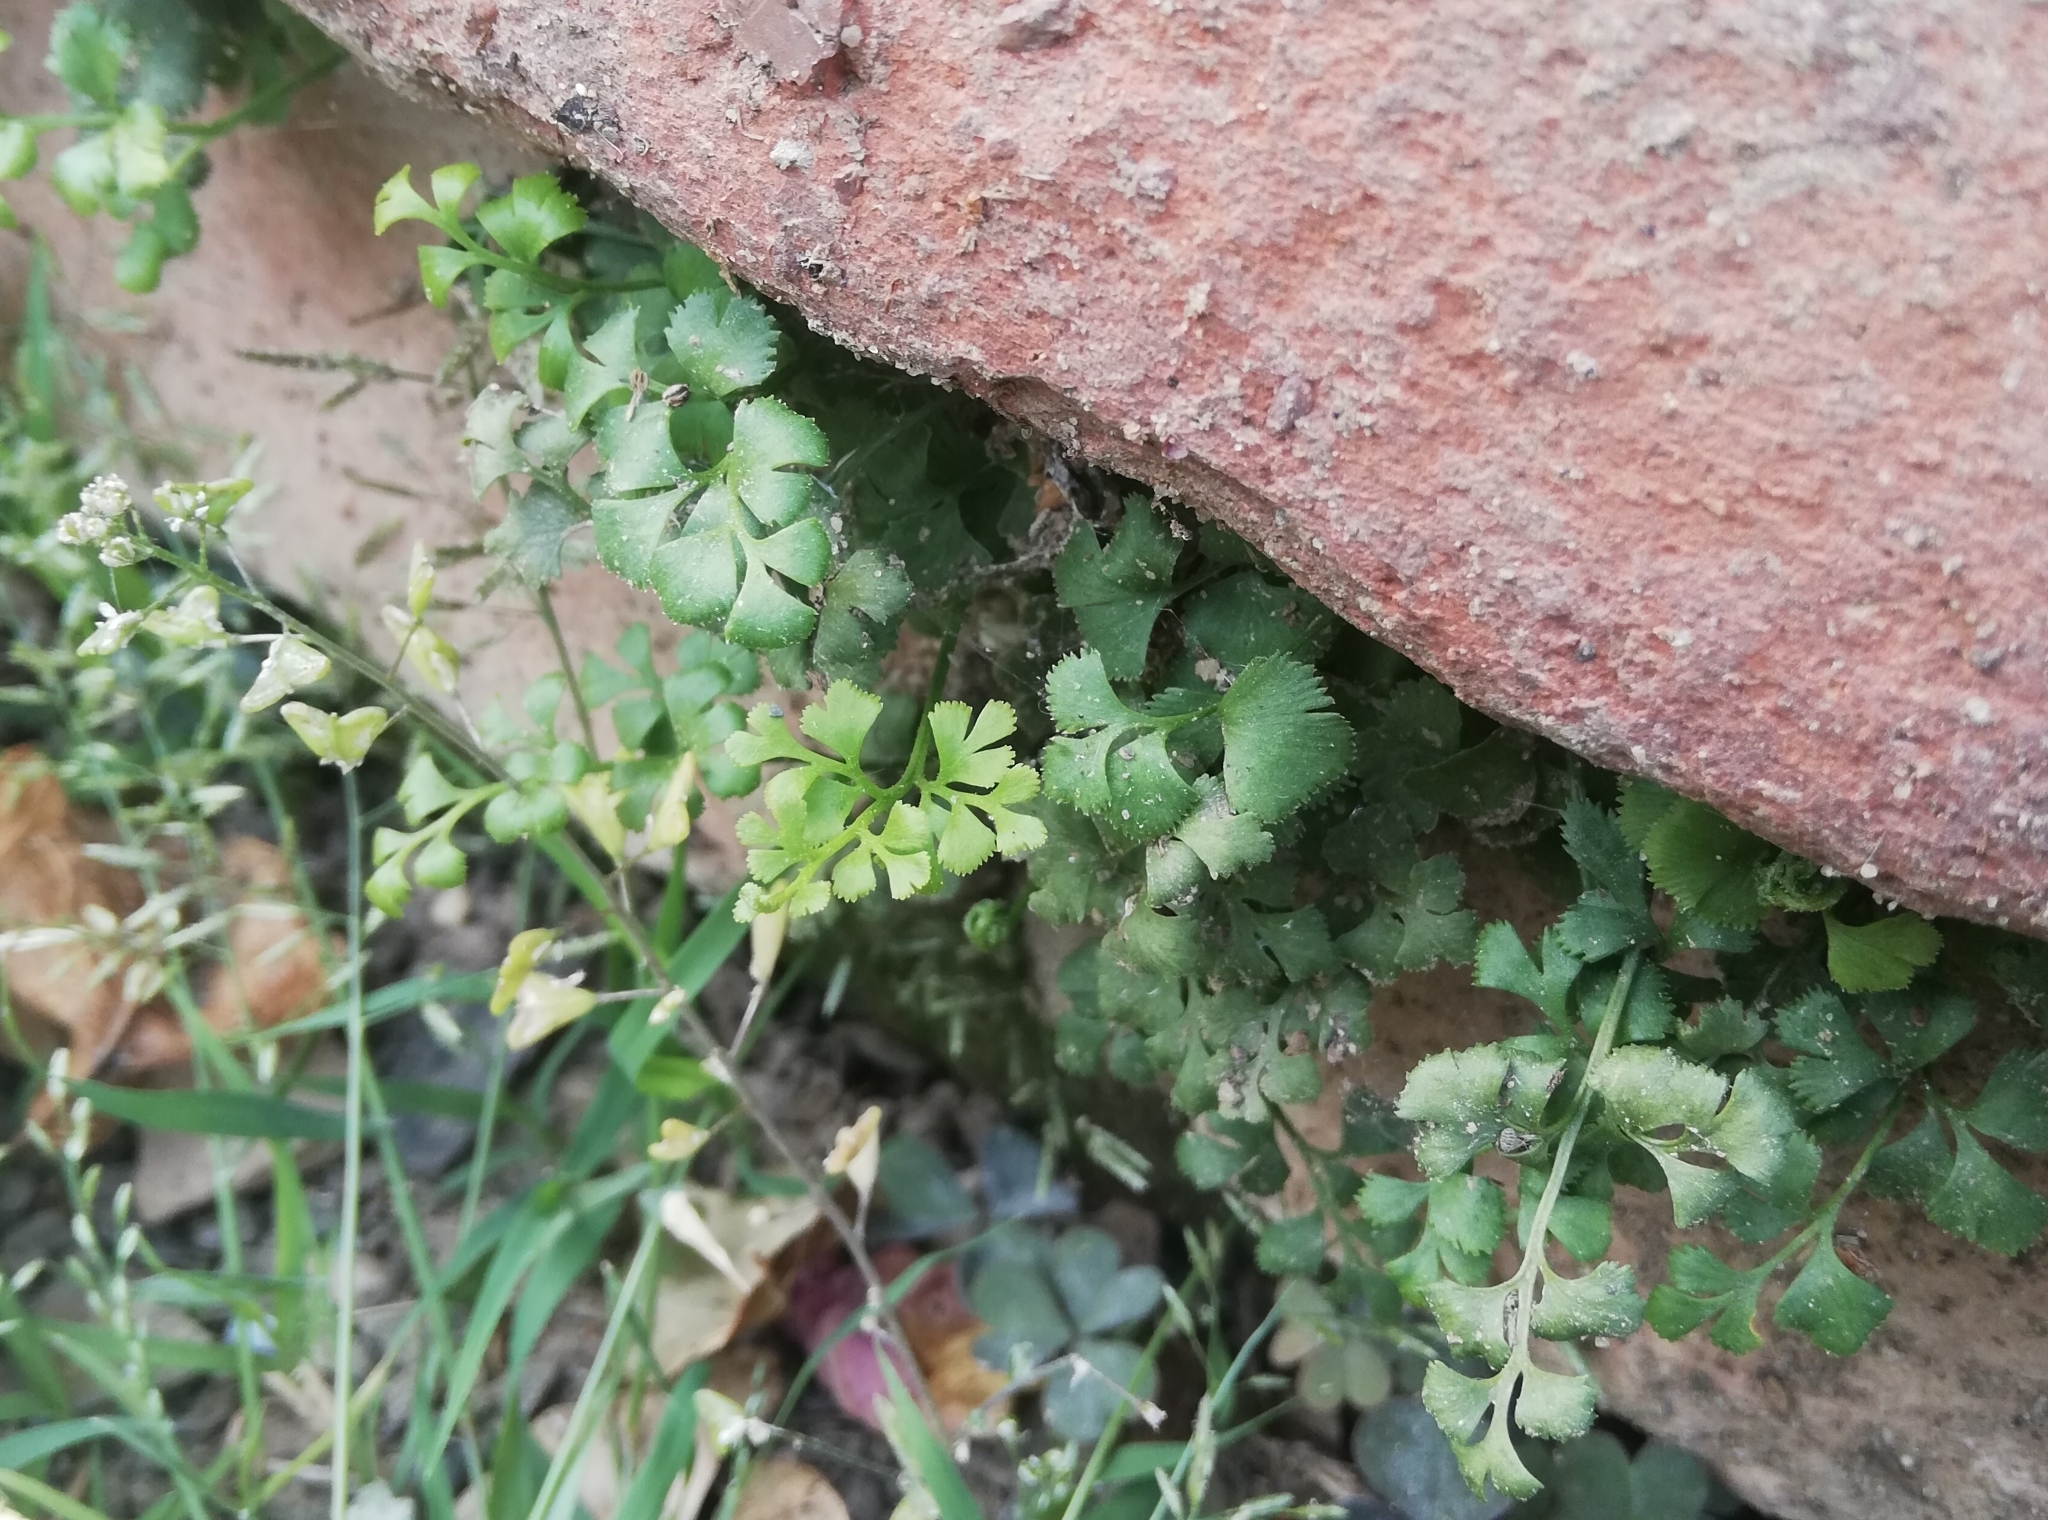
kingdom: Plantae
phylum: Tracheophyta
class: Polypodiopsida
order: Polypodiales
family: Aspleniaceae
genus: Asplenium
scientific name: Asplenium ruta-muraria
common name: Wall-rue
